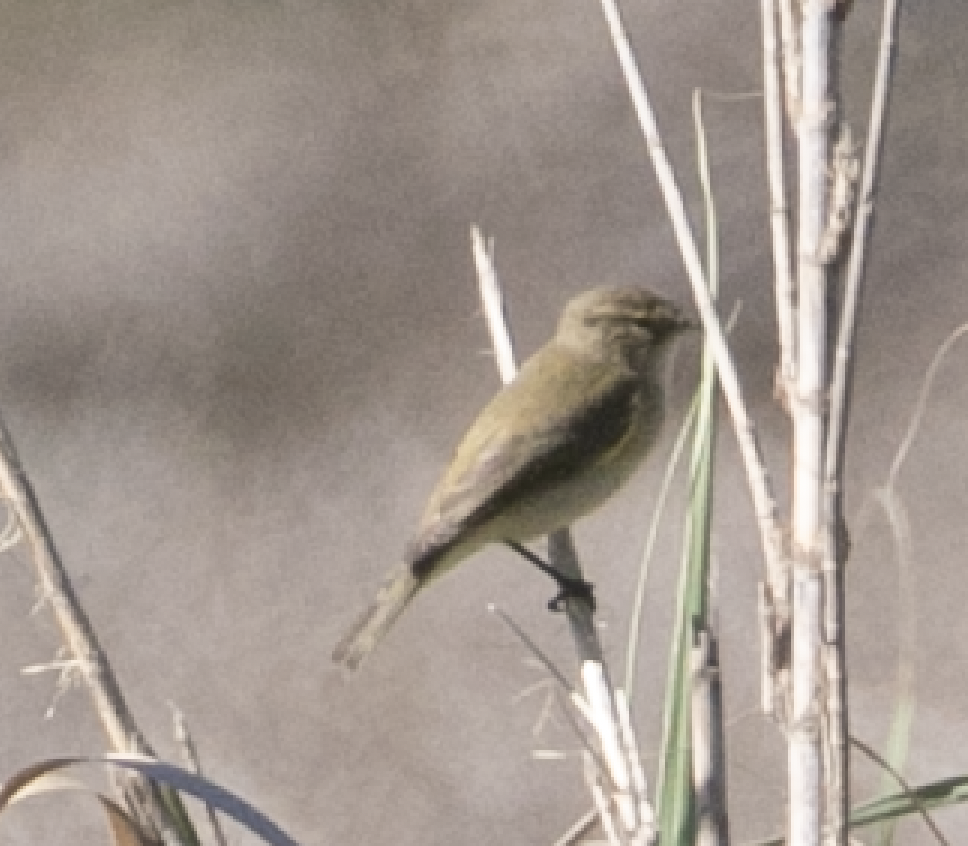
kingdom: Animalia
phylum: Chordata
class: Aves
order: Passeriformes
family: Phylloscopidae
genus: Phylloscopus
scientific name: Phylloscopus collybita
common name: Common chiffchaff
